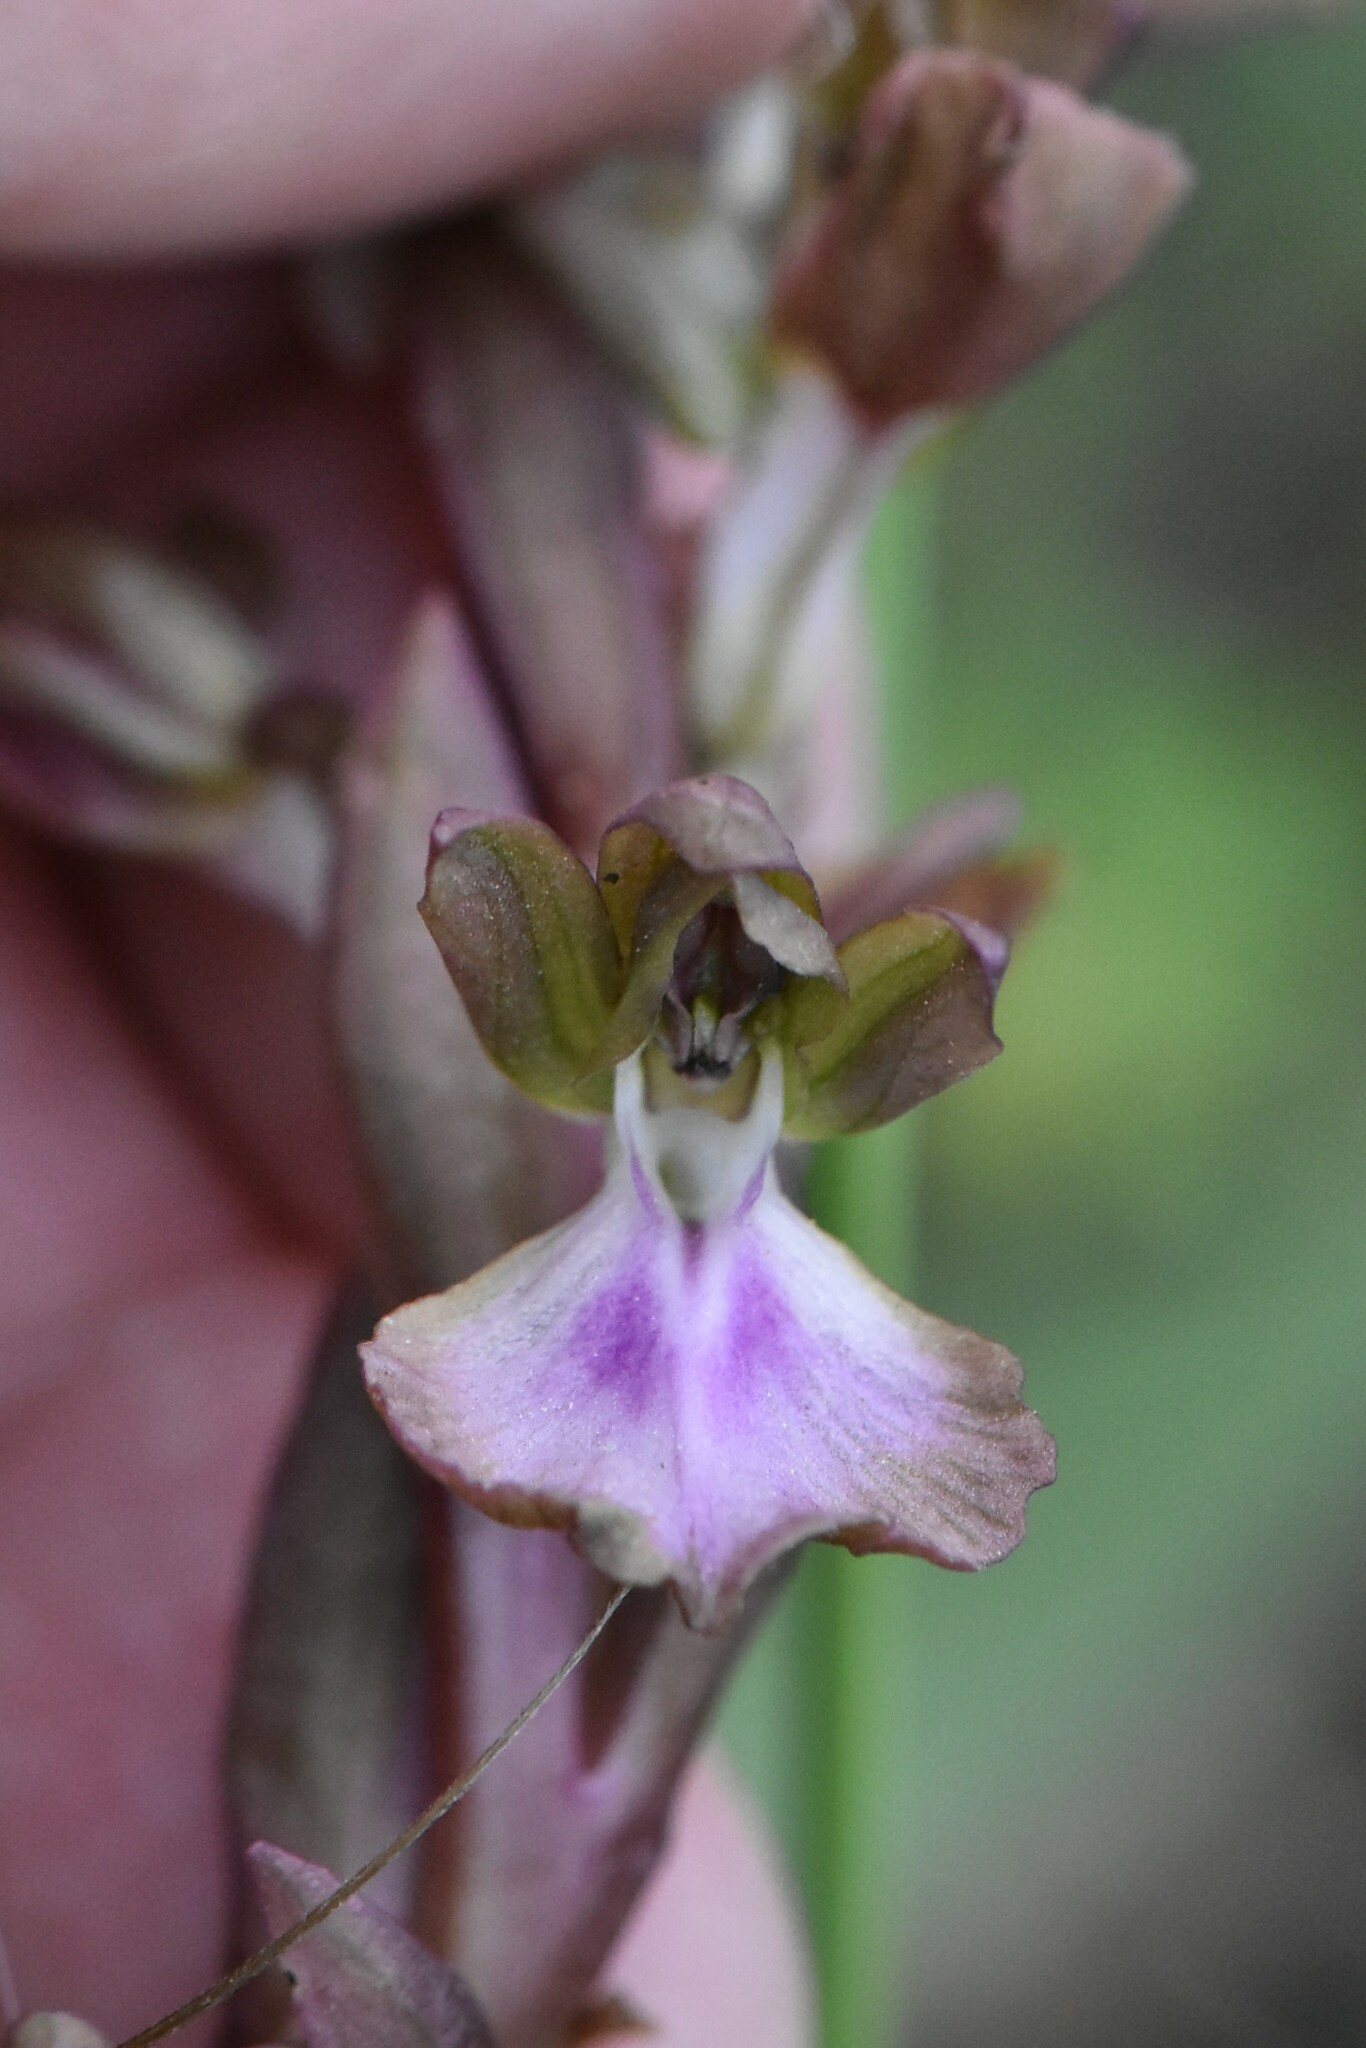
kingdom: Plantae
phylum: Tracheophyta
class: Liliopsida
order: Asparagales
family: Orchidaceae
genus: Anacamptis
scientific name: Anacamptis collina
